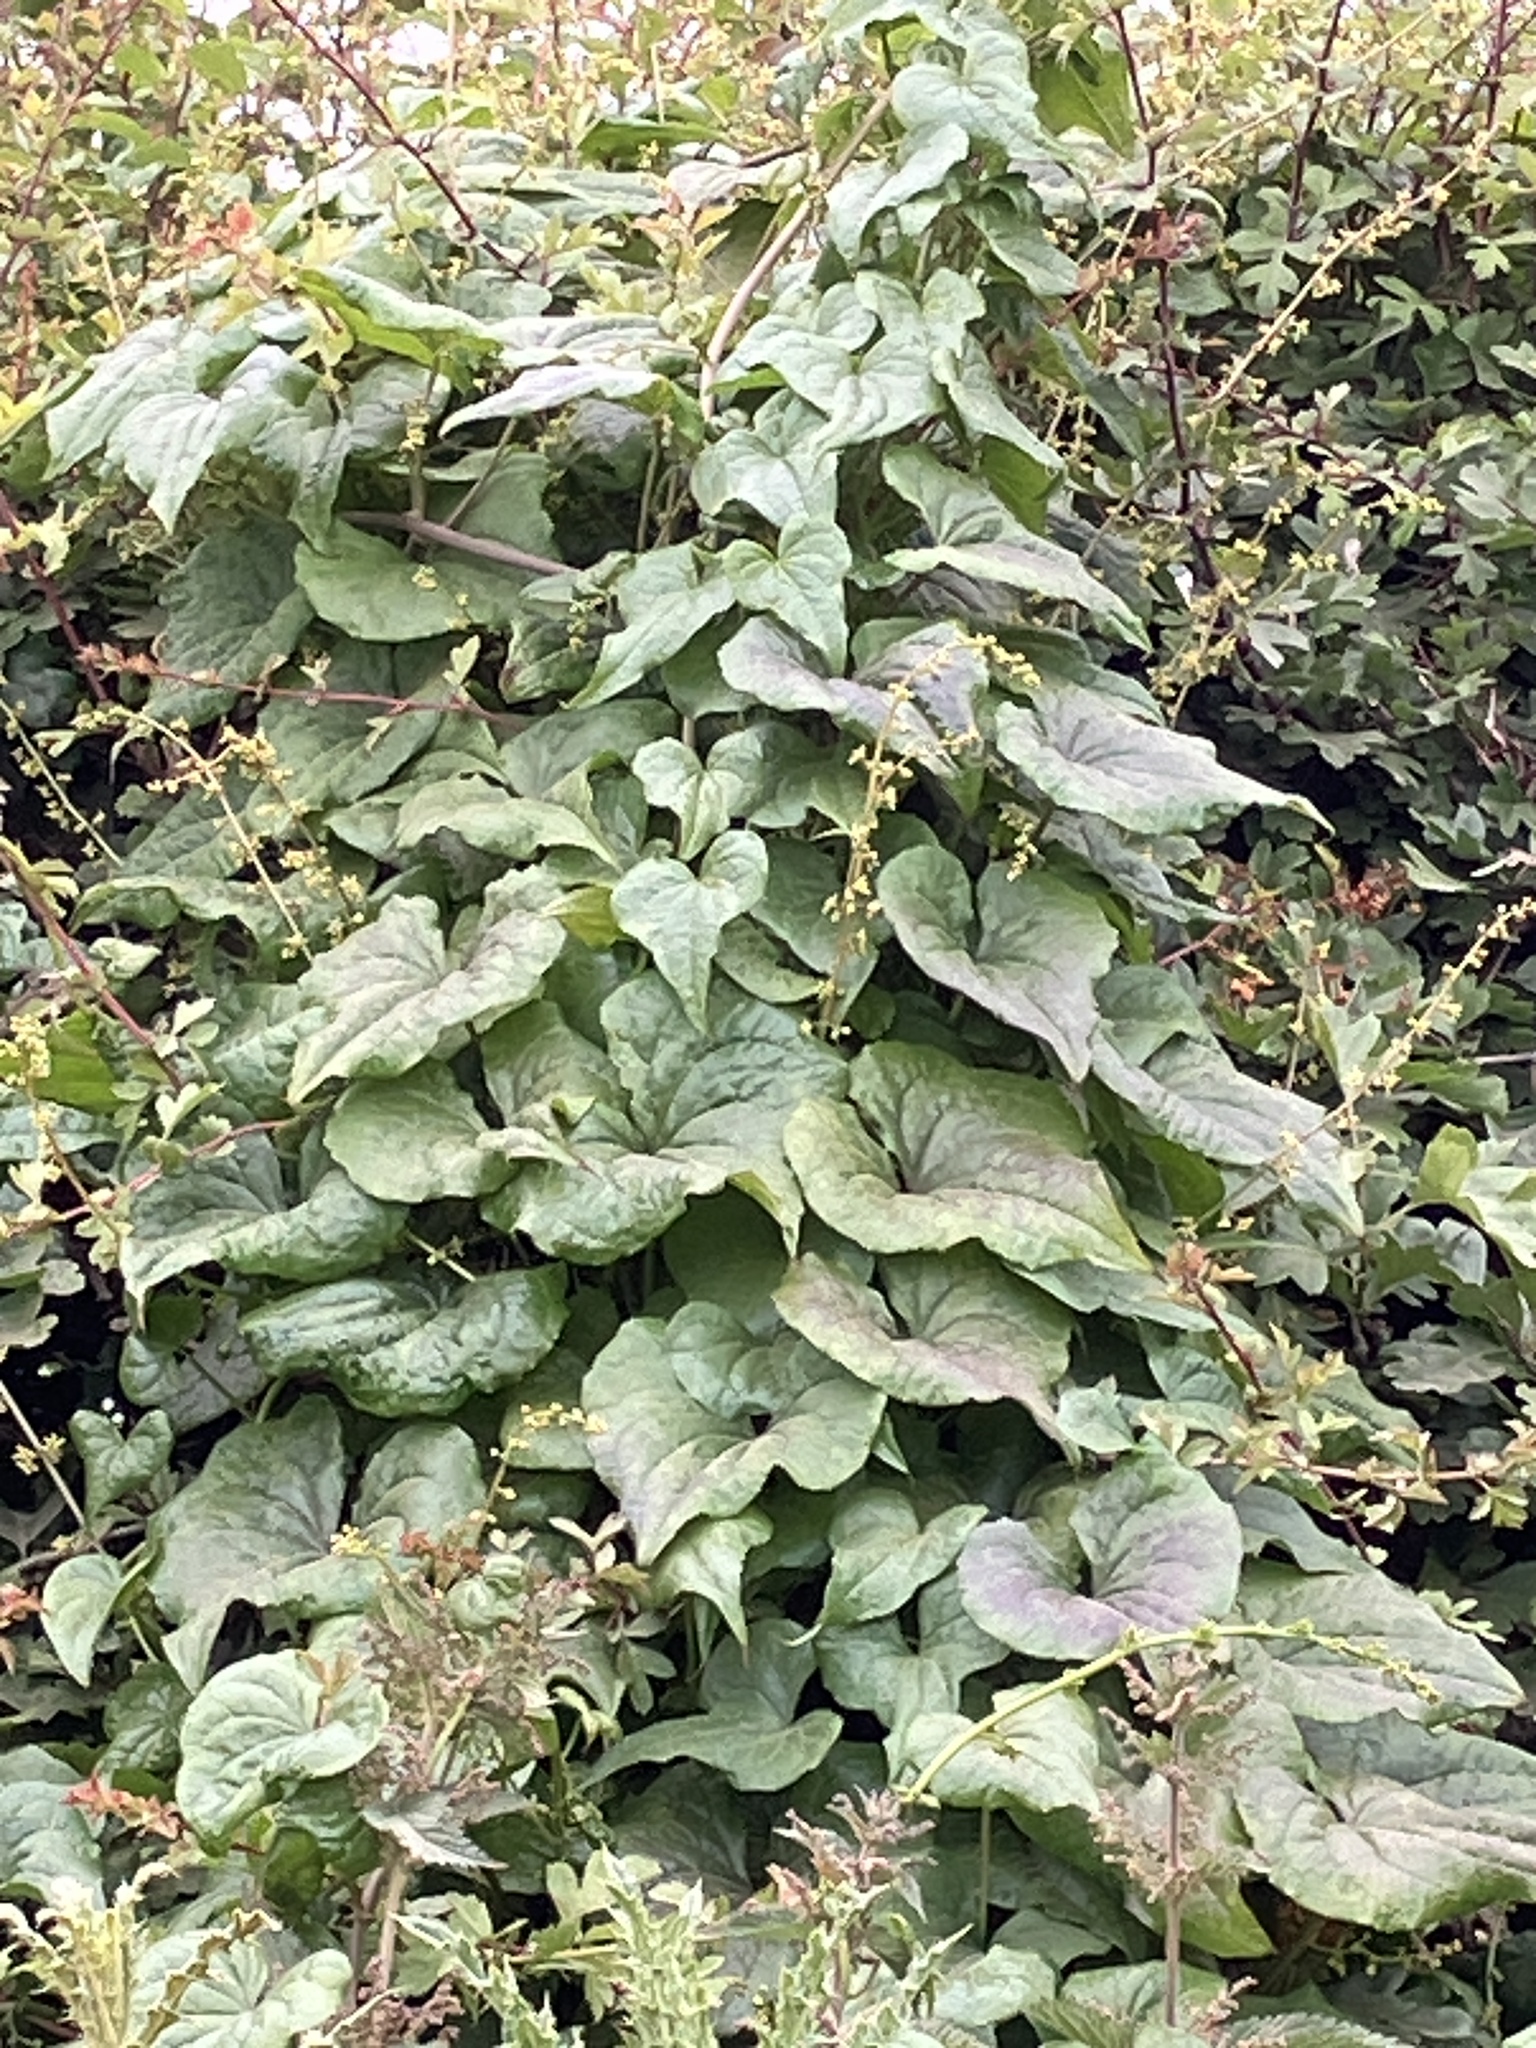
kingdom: Plantae
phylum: Tracheophyta
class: Liliopsida
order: Dioscoreales
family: Dioscoreaceae
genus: Dioscorea
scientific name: Dioscorea communis
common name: Black-bindweed
